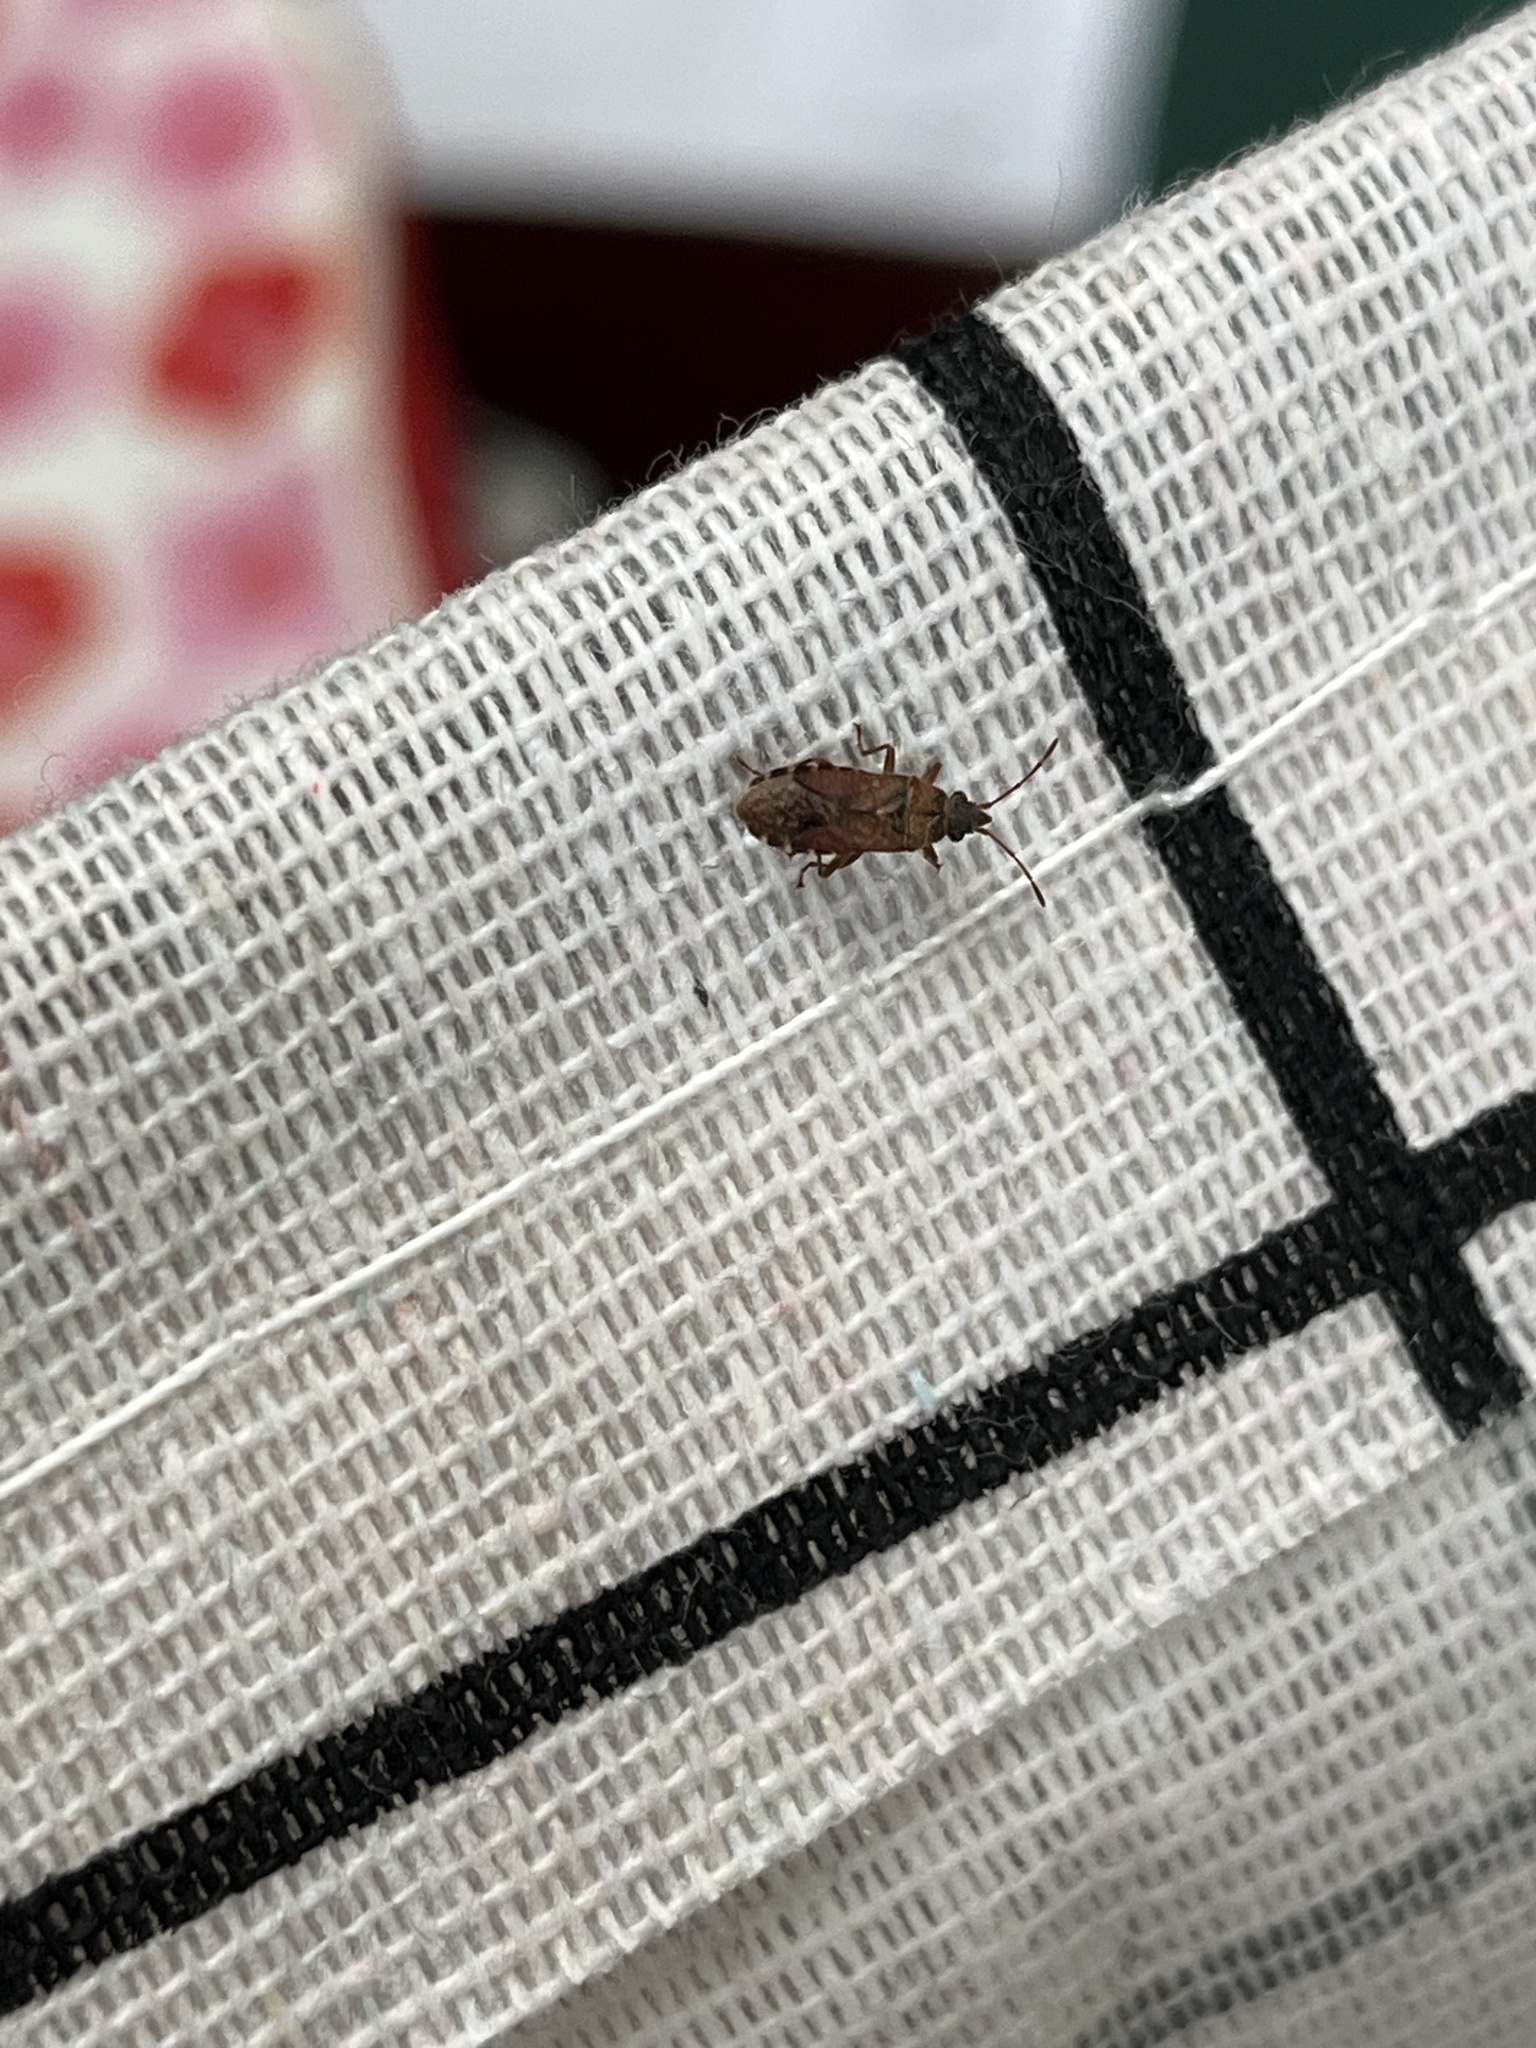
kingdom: Animalia
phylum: Arthropoda
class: Insecta
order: Hemiptera
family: Lygaeidae
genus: Orsillus
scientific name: Orsillus depressus
